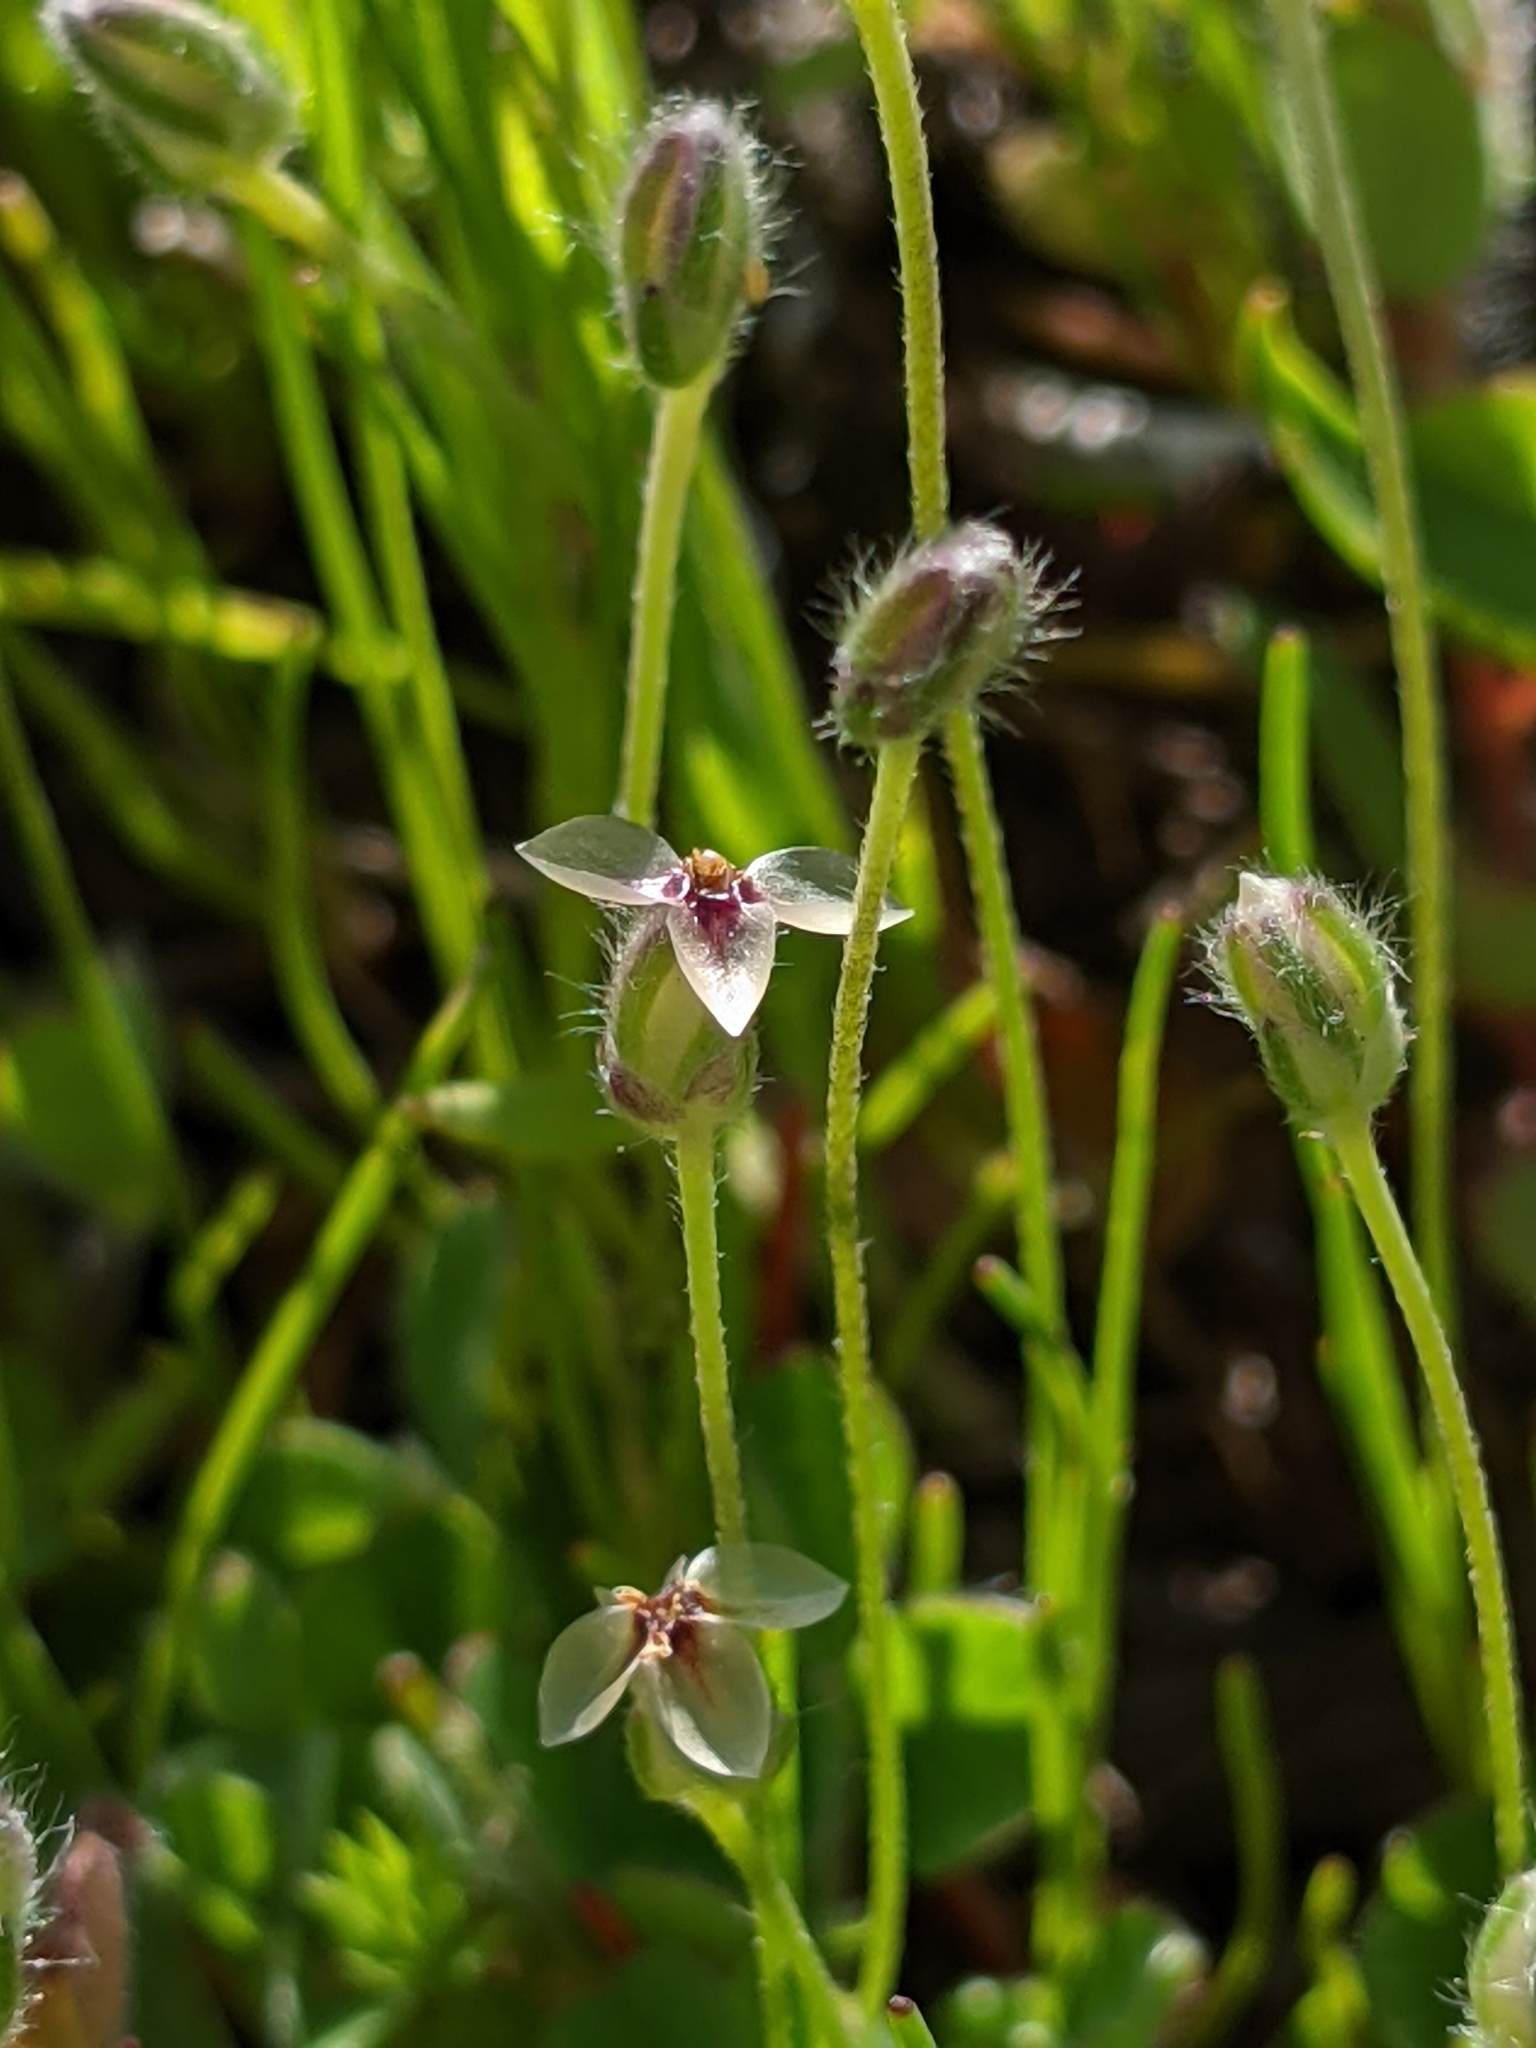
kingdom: Plantae
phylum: Tracheophyta
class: Magnoliopsida
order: Lamiales
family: Plantaginaceae
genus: Plantago
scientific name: Plantago erecta
